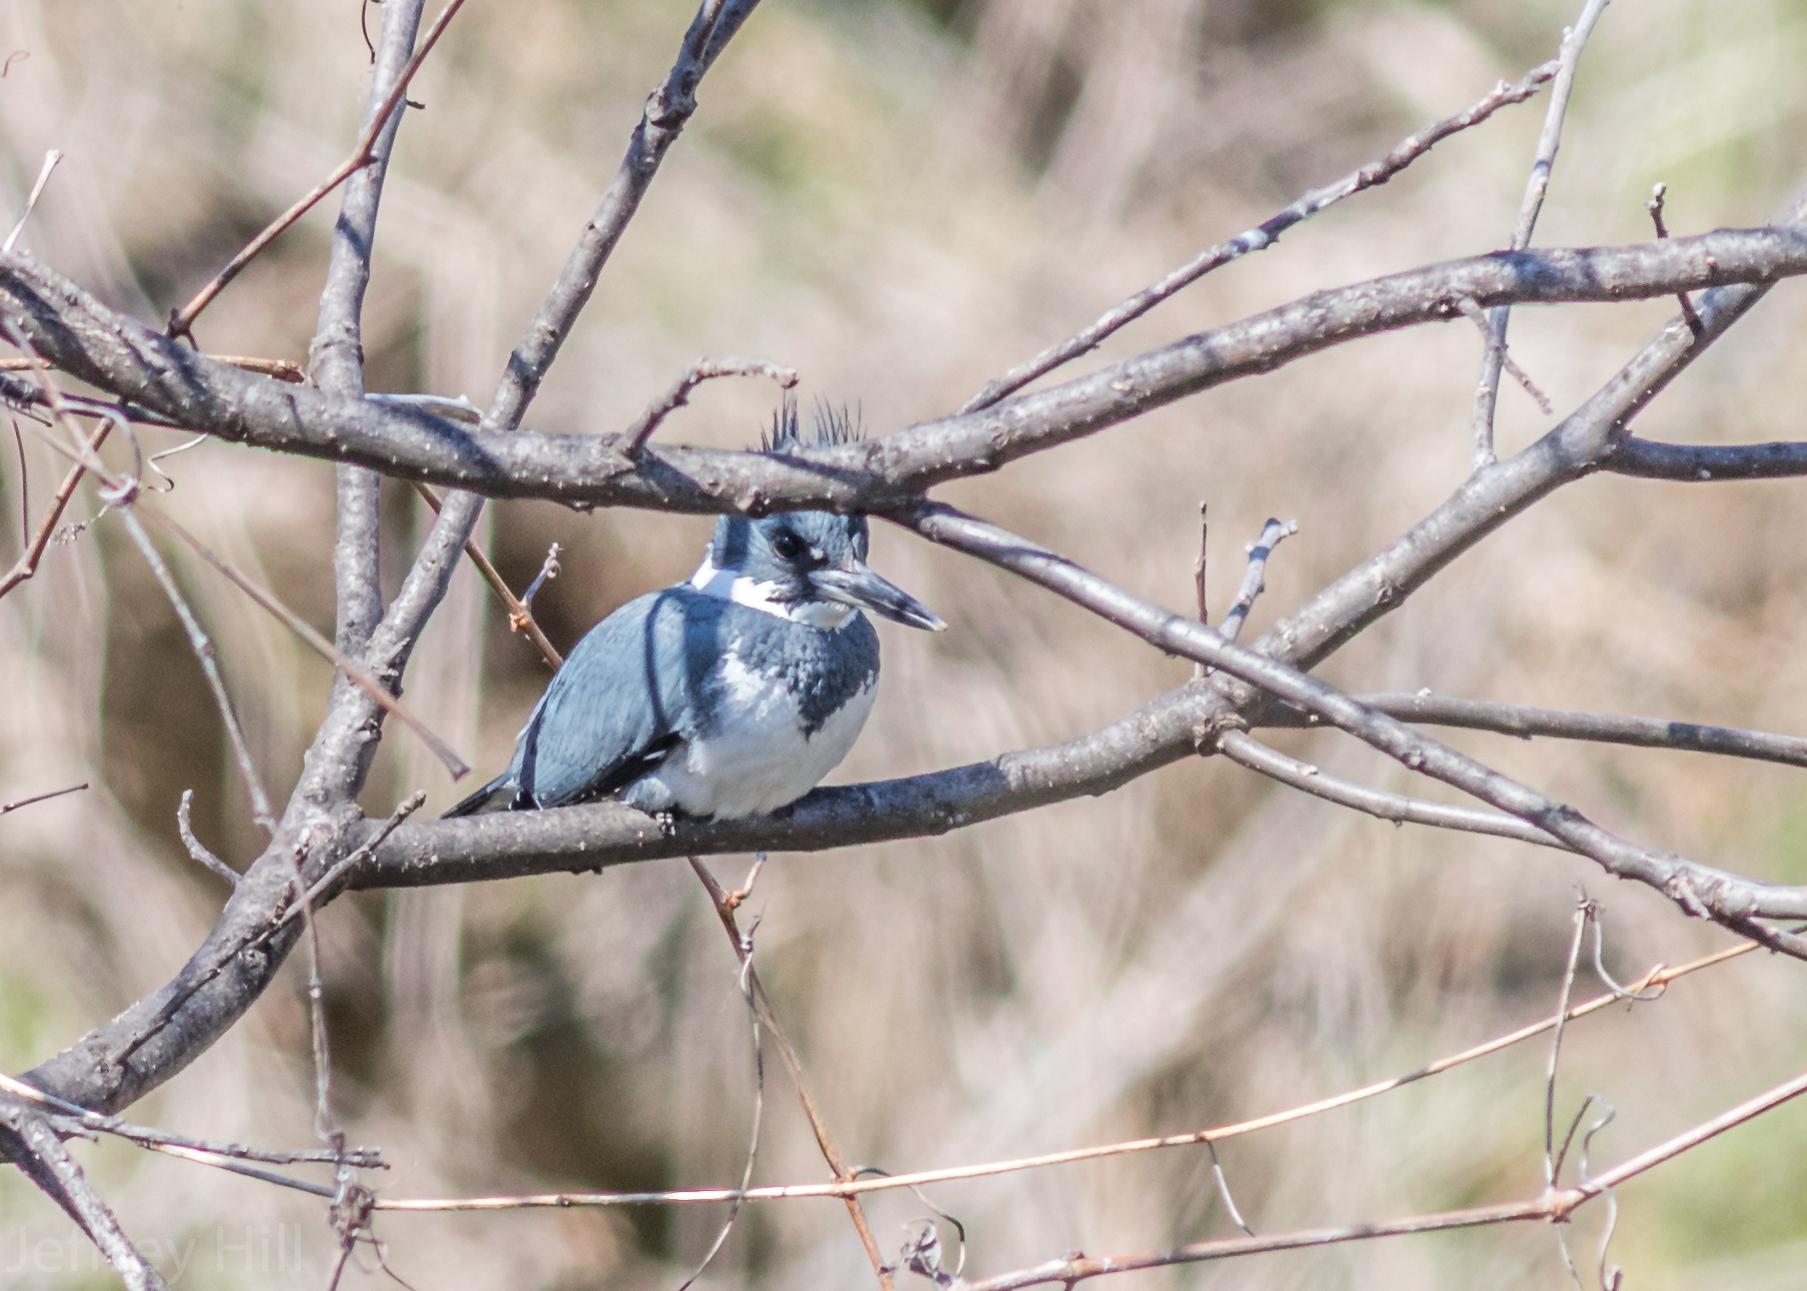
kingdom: Animalia
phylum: Chordata
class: Aves
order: Coraciiformes
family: Alcedinidae
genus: Megaceryle
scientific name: Megaceryle alcyon
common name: Belted kingfisher
